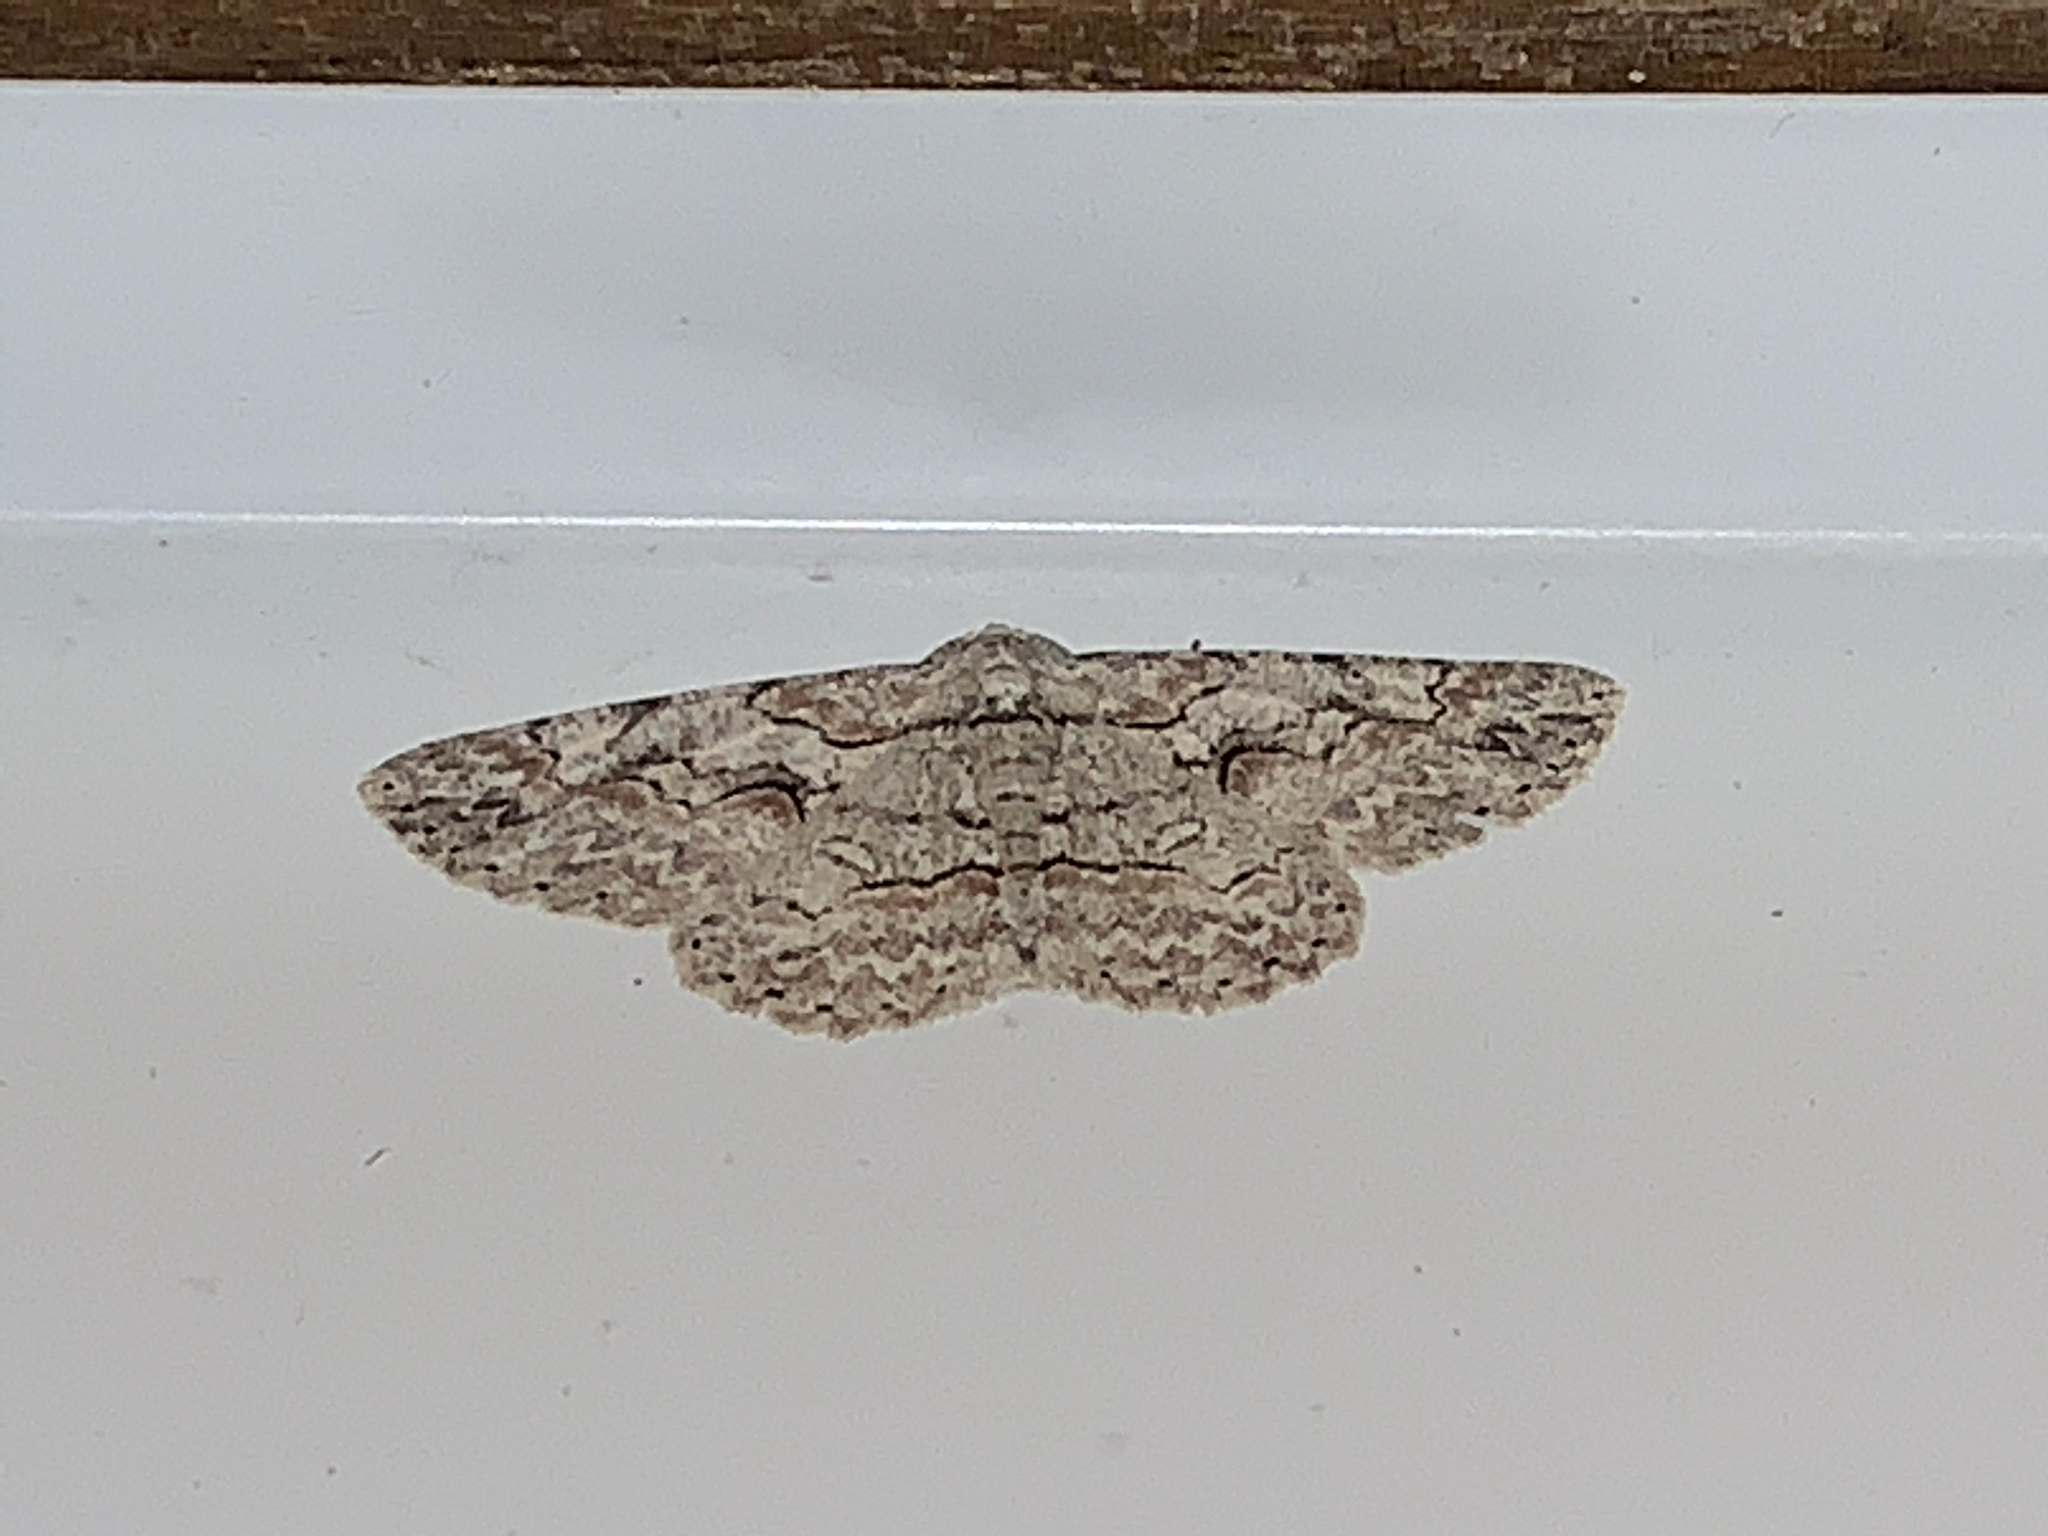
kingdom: Animalia
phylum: Arthropoda
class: Insecta
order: Lepidoptera
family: Geometridae
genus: Iridopsis
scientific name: Iridopsis defectaria
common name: Brown-shaded gray
